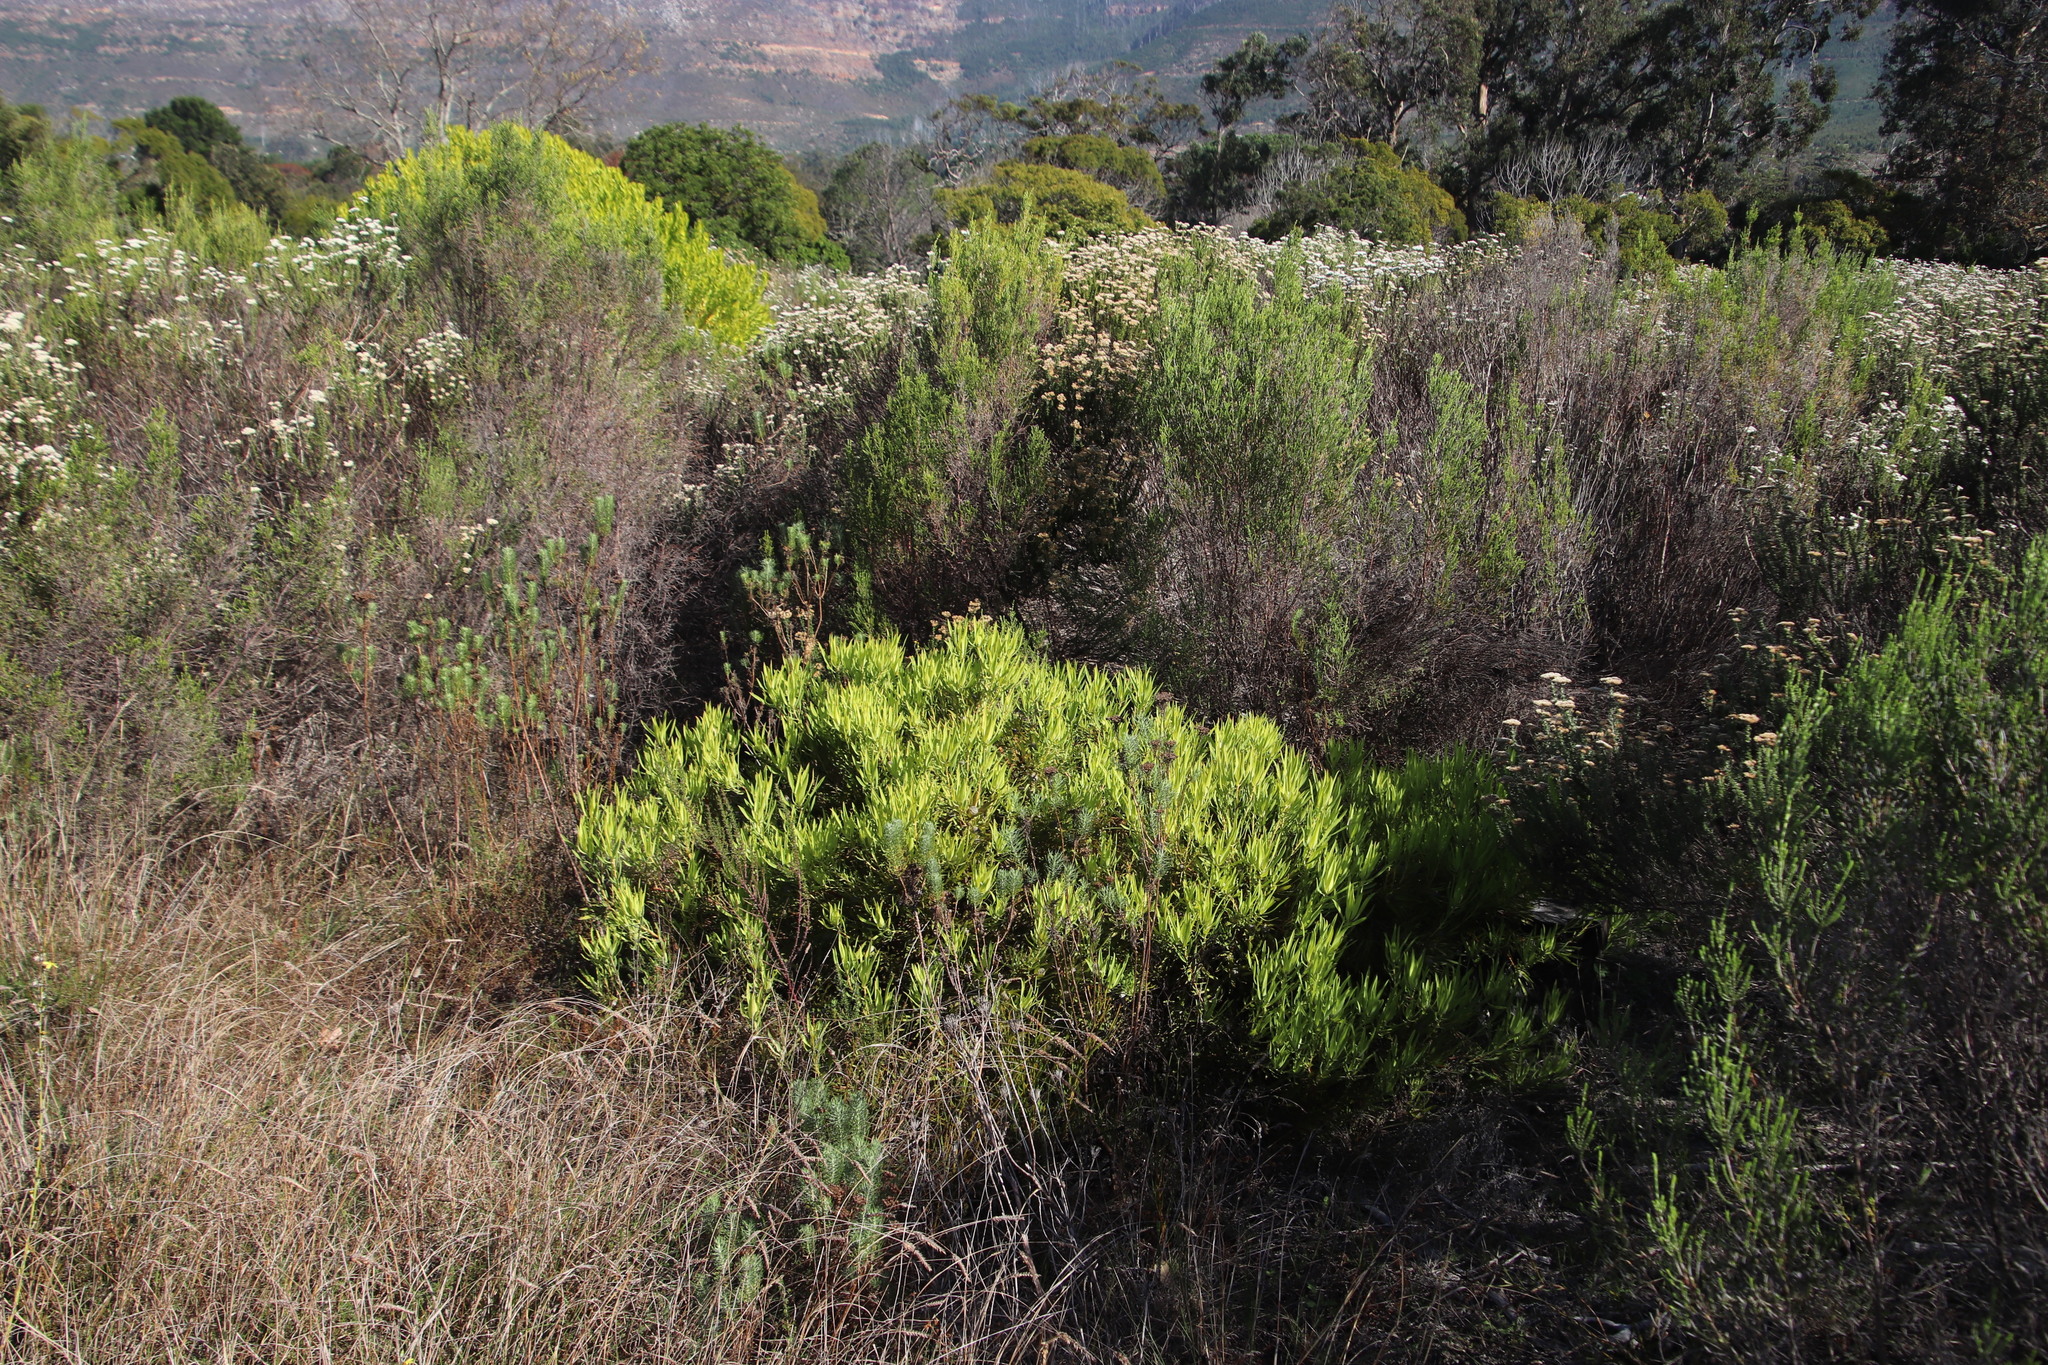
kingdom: Plantae
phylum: Tracheophyta
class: Magnoliopsida
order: Proteales
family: Proteaceae
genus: Leucadendron
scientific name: Leucadendron salignum
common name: Common sunshine conebush
